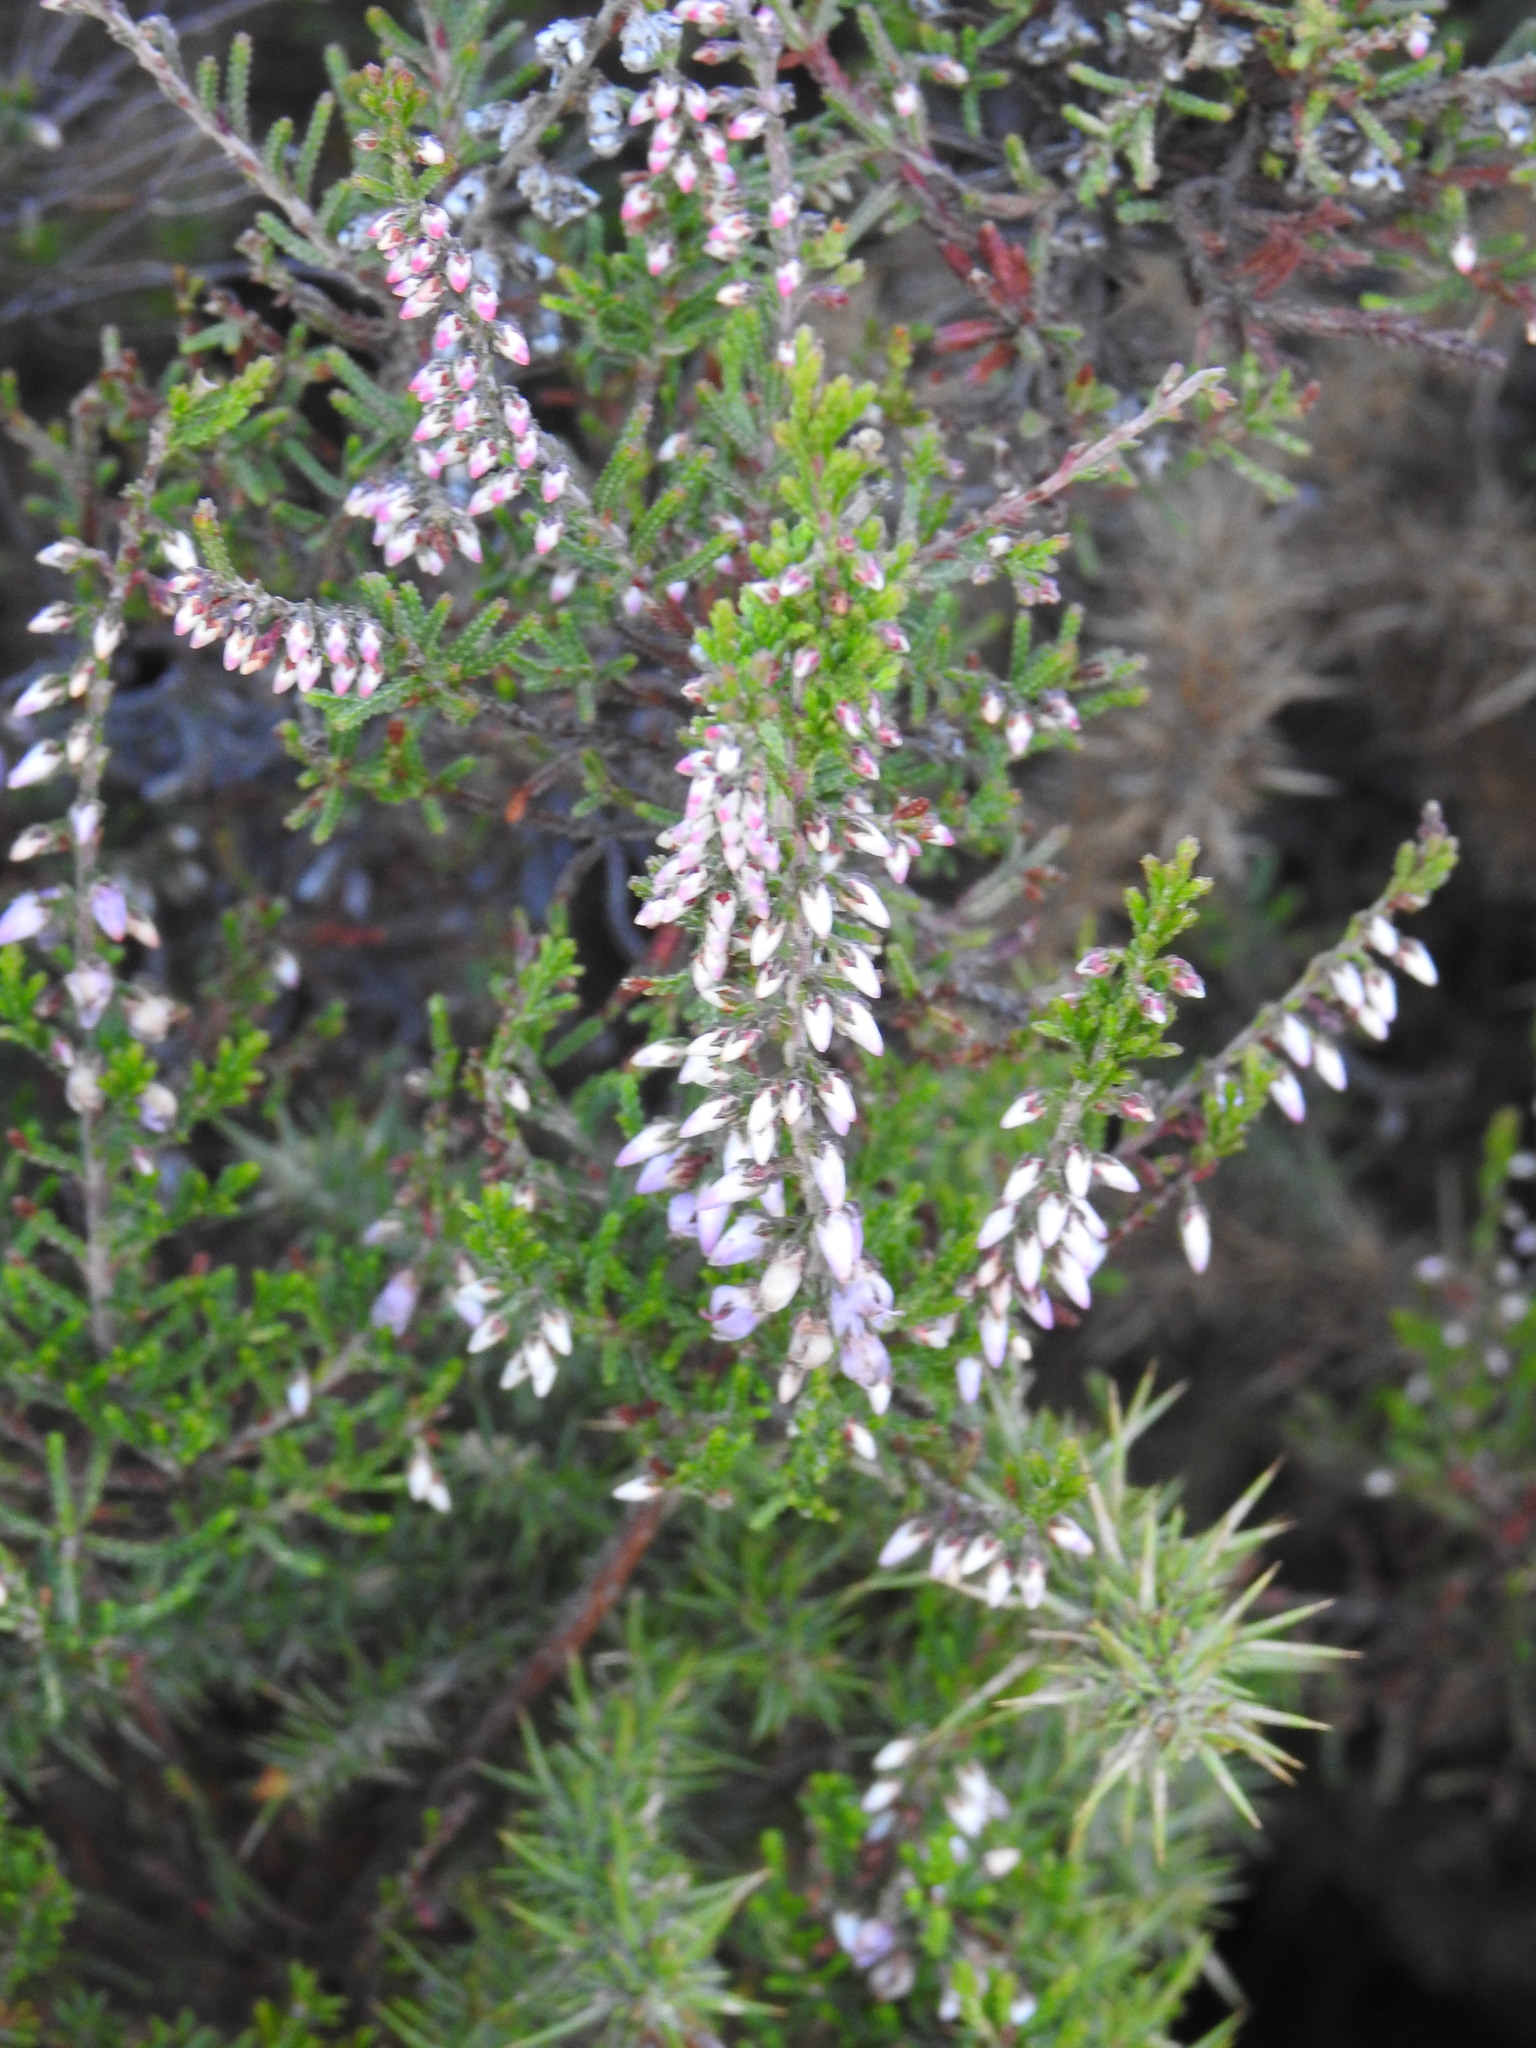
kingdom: Plantae
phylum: Tracheophyta
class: Magnoliopsida
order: Ericales
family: Ericaceae
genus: Calluna
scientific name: Calluna vulgaris
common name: Heather
